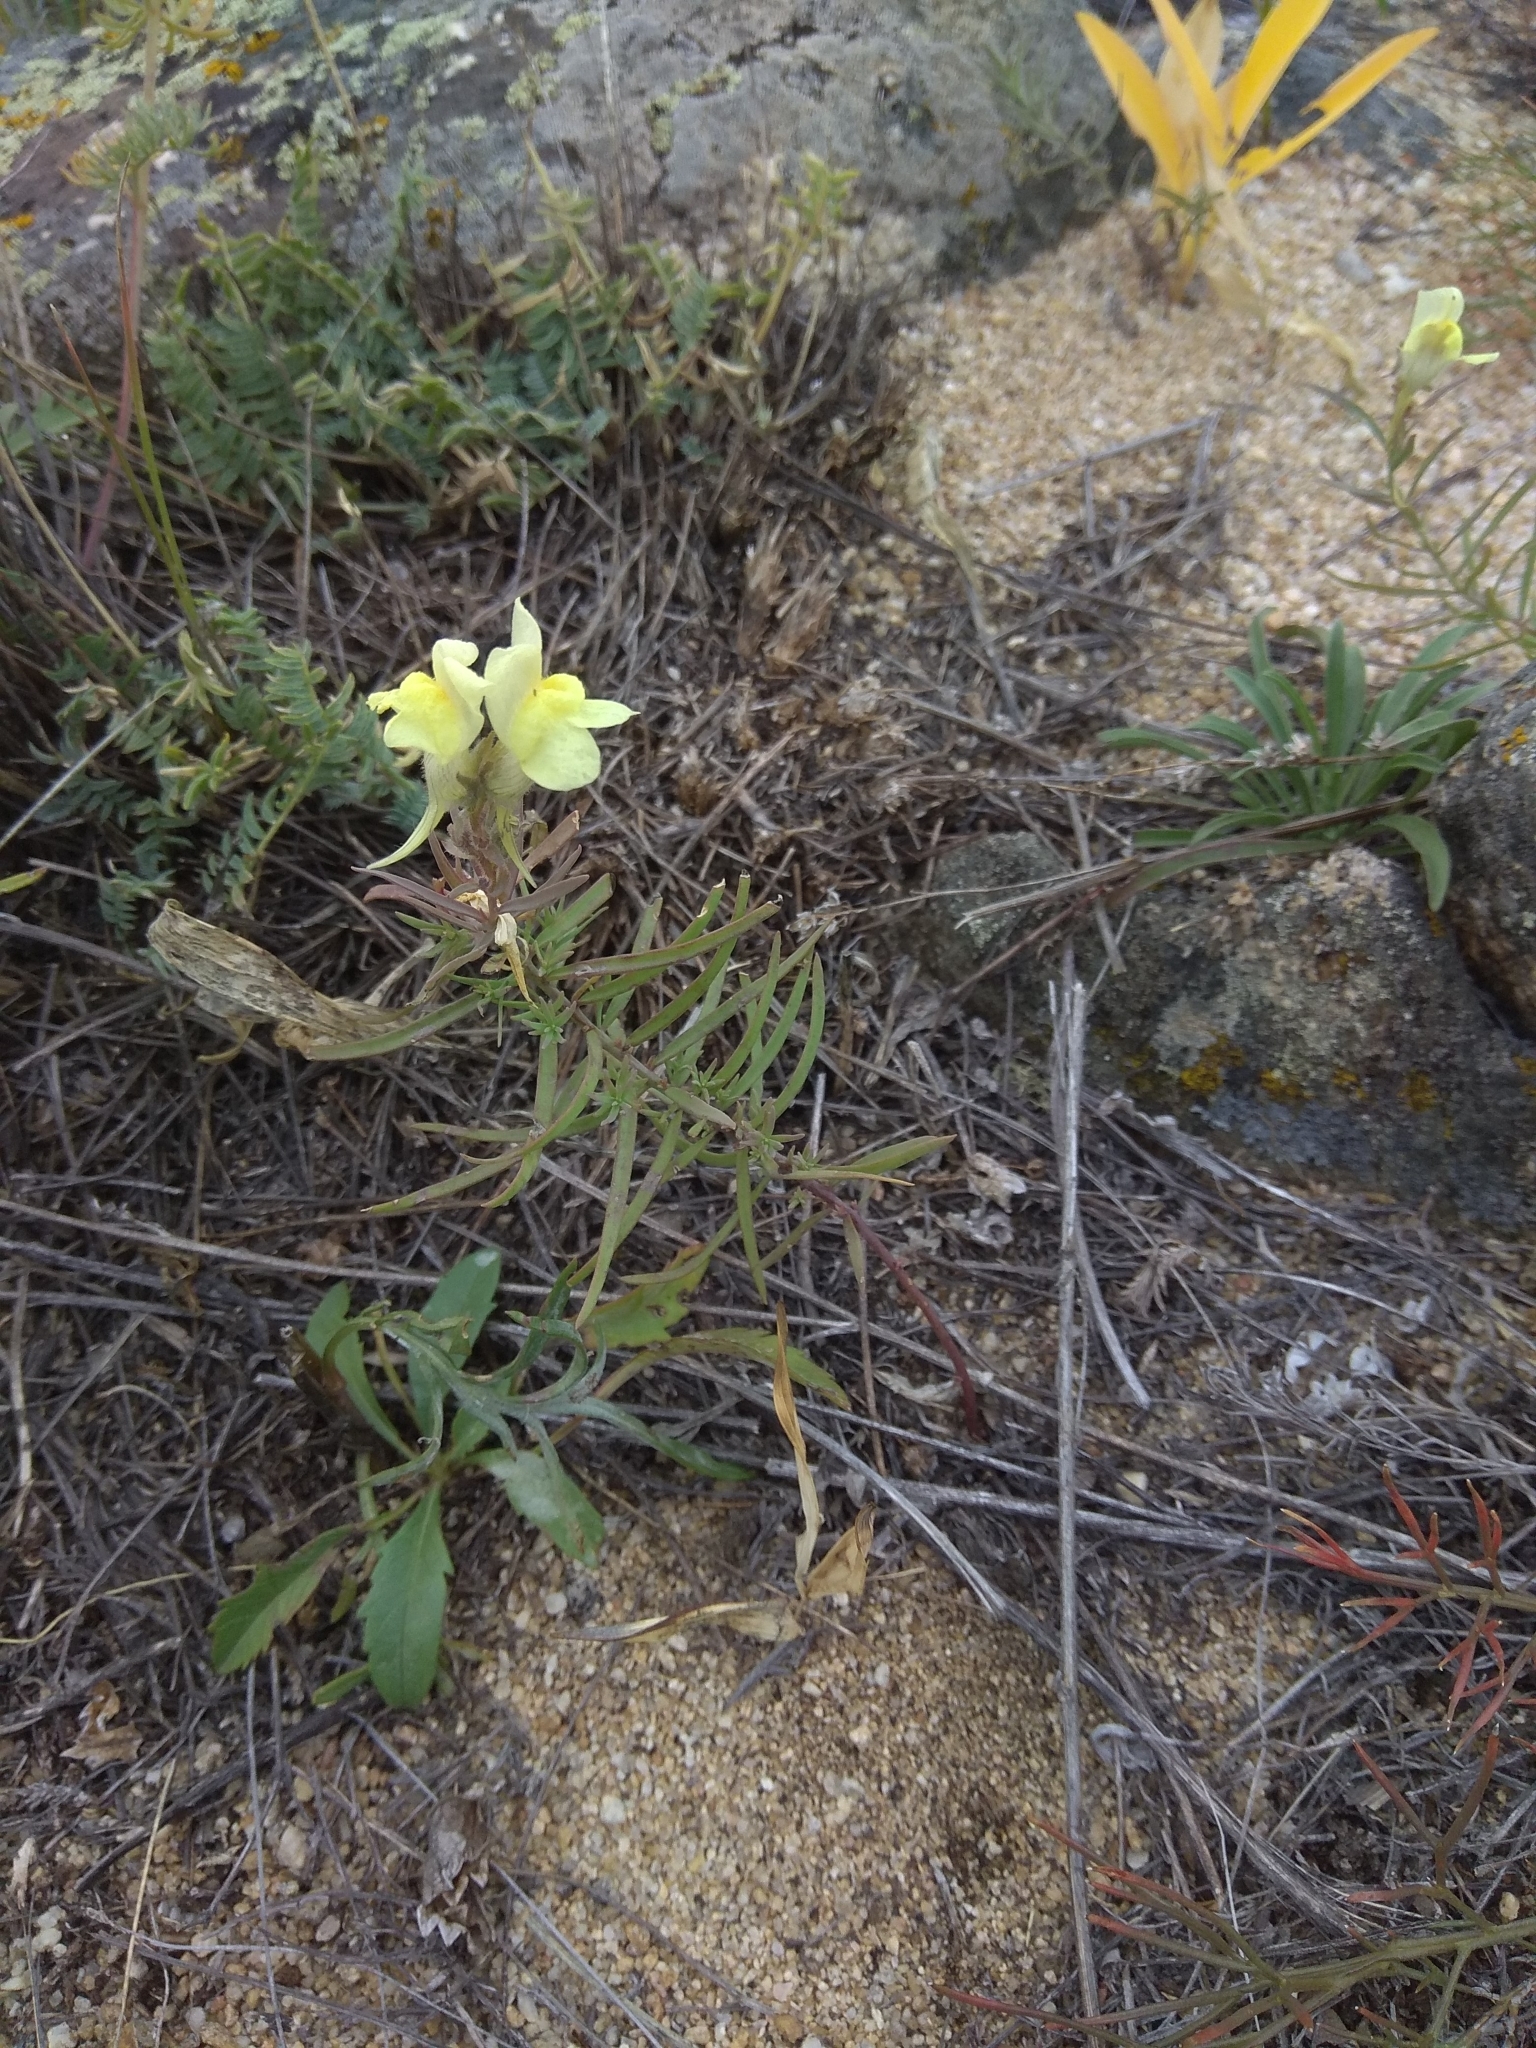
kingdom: Plantae
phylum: Tracheophyta
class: Magnoliopsida
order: Lamiales
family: Plantaginaceae
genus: Linaria
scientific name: Linaria buriatica
